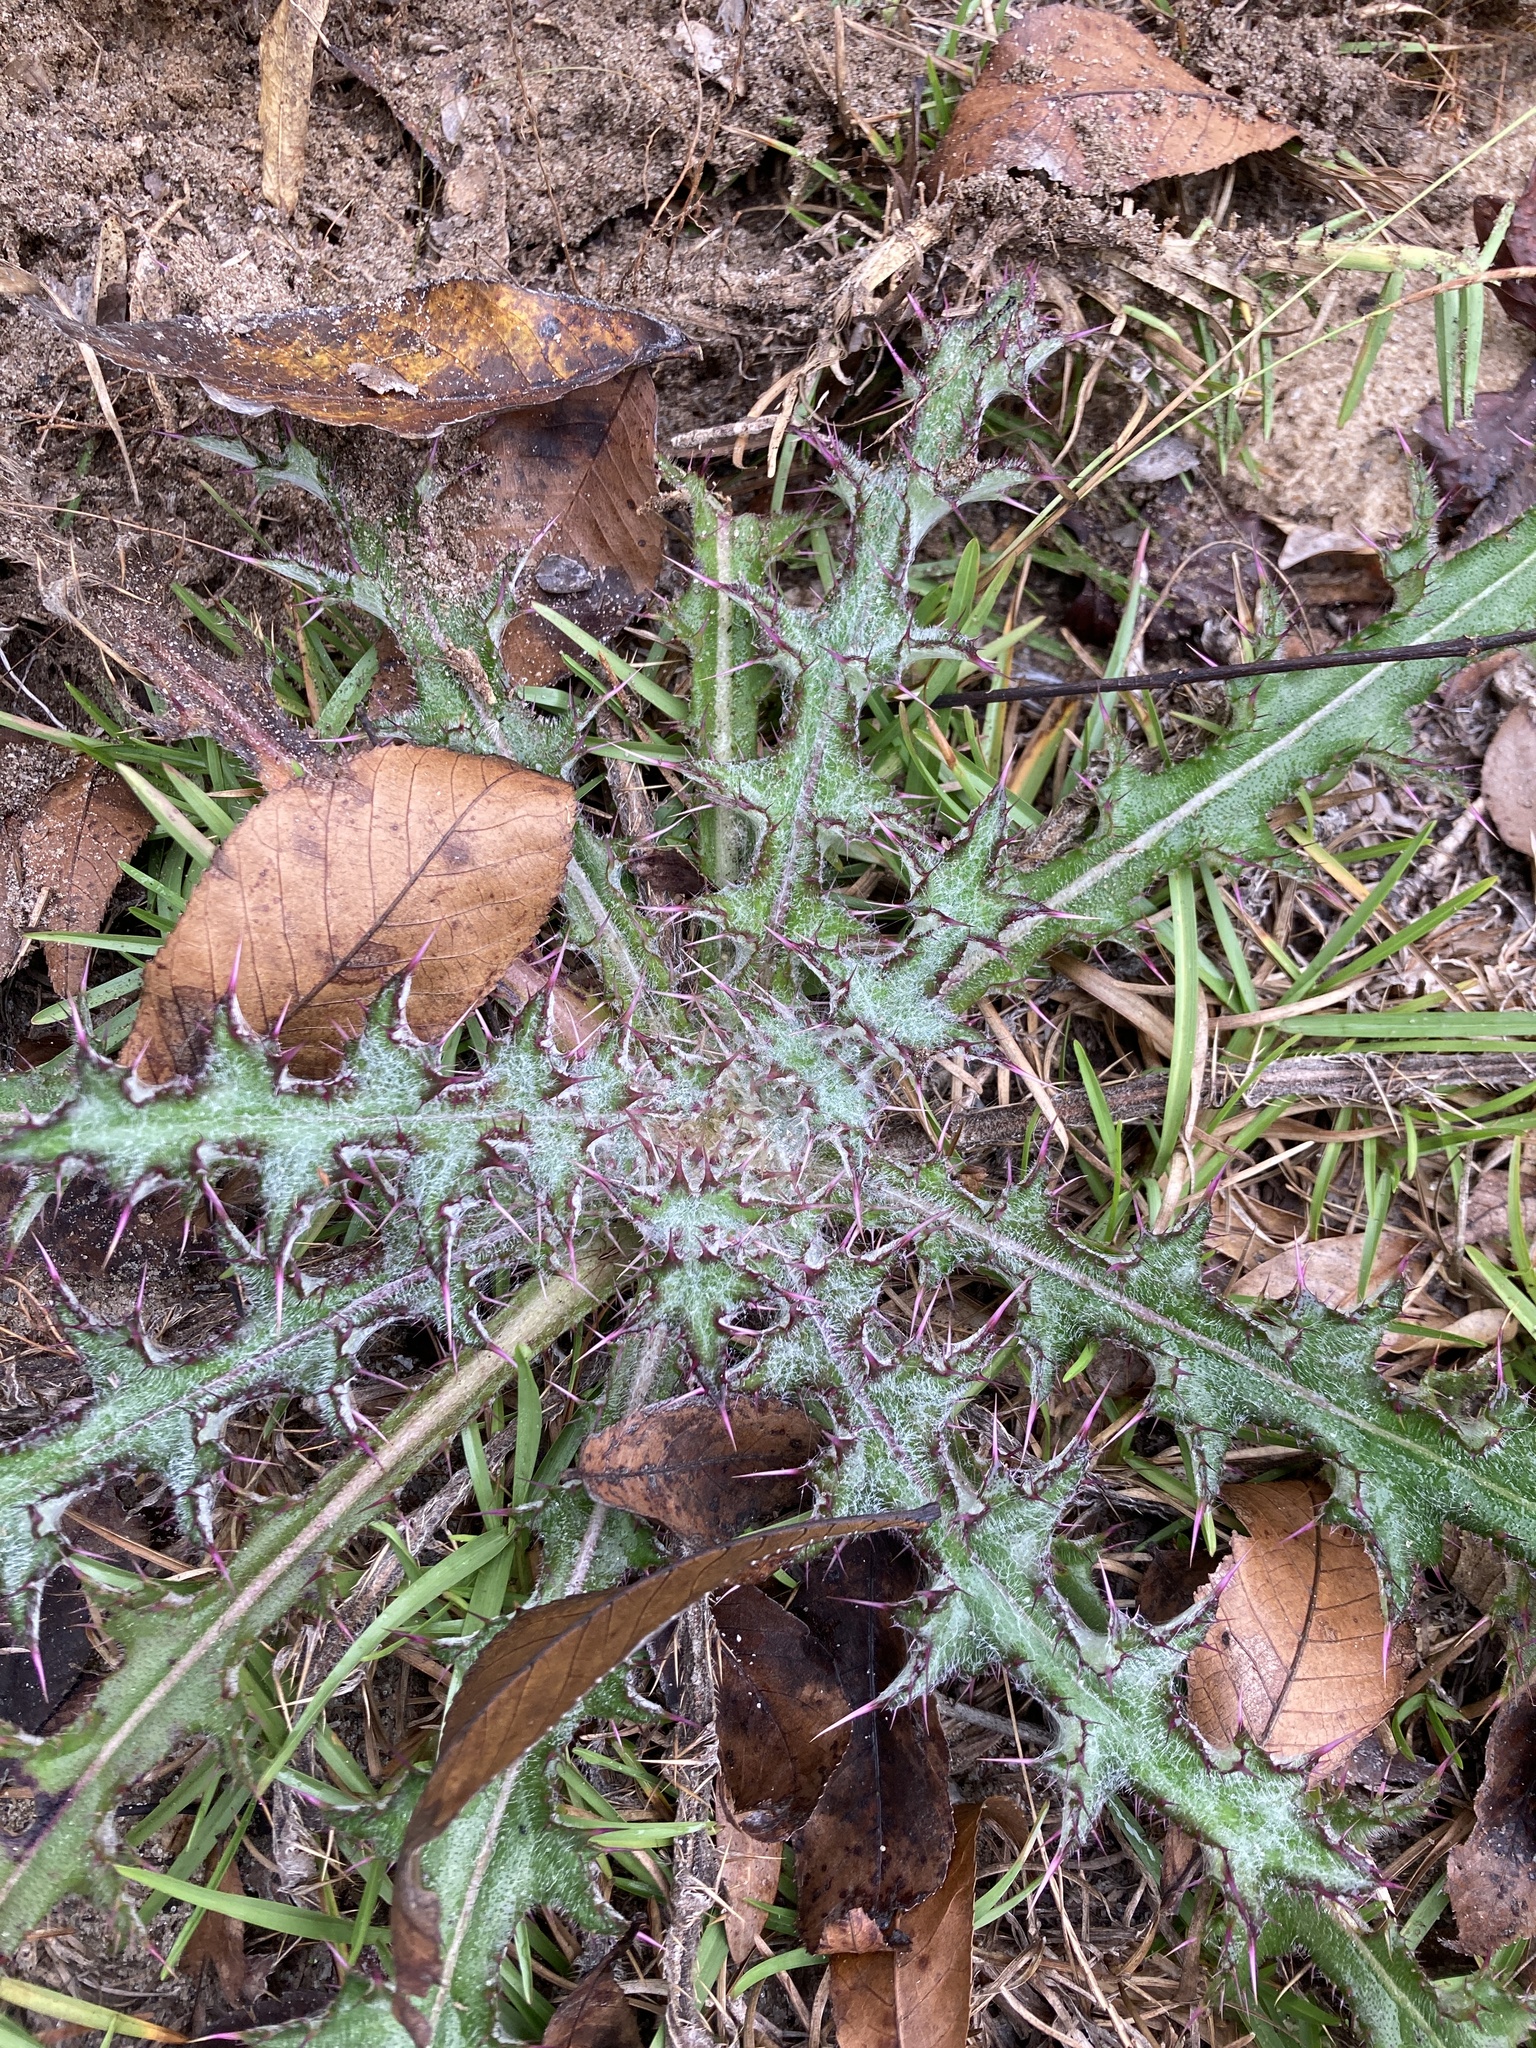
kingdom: Plantae
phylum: Tracheophyta
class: Magnoliopsida
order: Asterales
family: Asteraceae
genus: Cirsium
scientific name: Cirsium horridulum
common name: Bristly thistle
